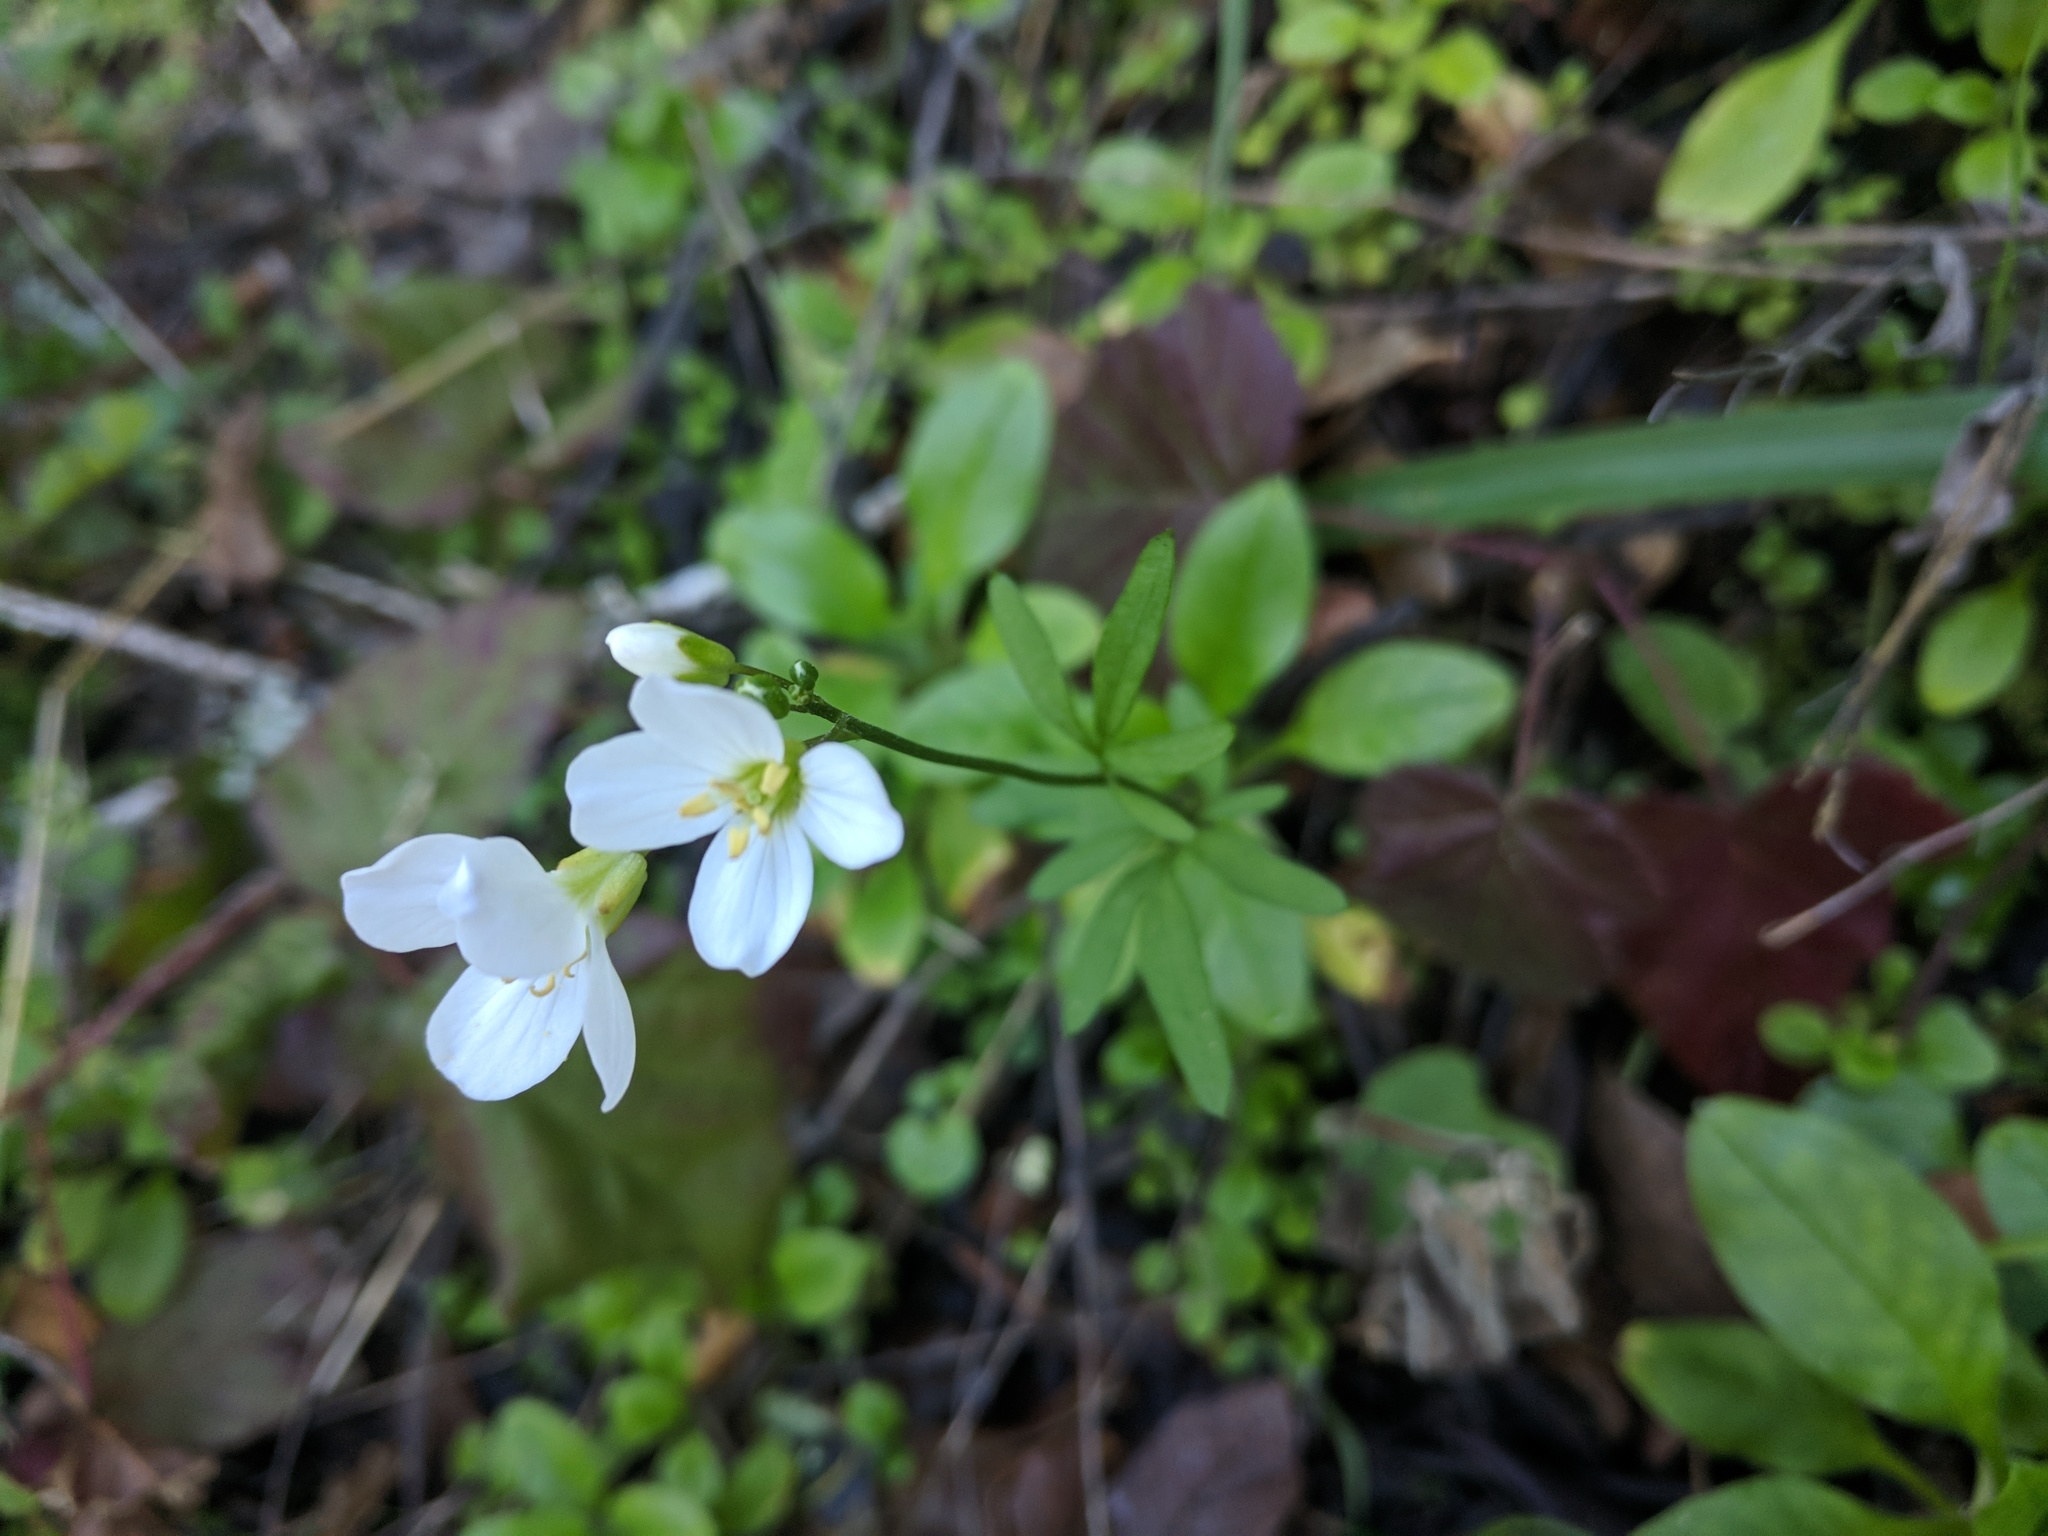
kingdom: Plantae
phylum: Tracheophyta
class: Magnoliopsida
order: Brassicales
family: Brassicaceae
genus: Cardamine
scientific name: Cardamine californica
